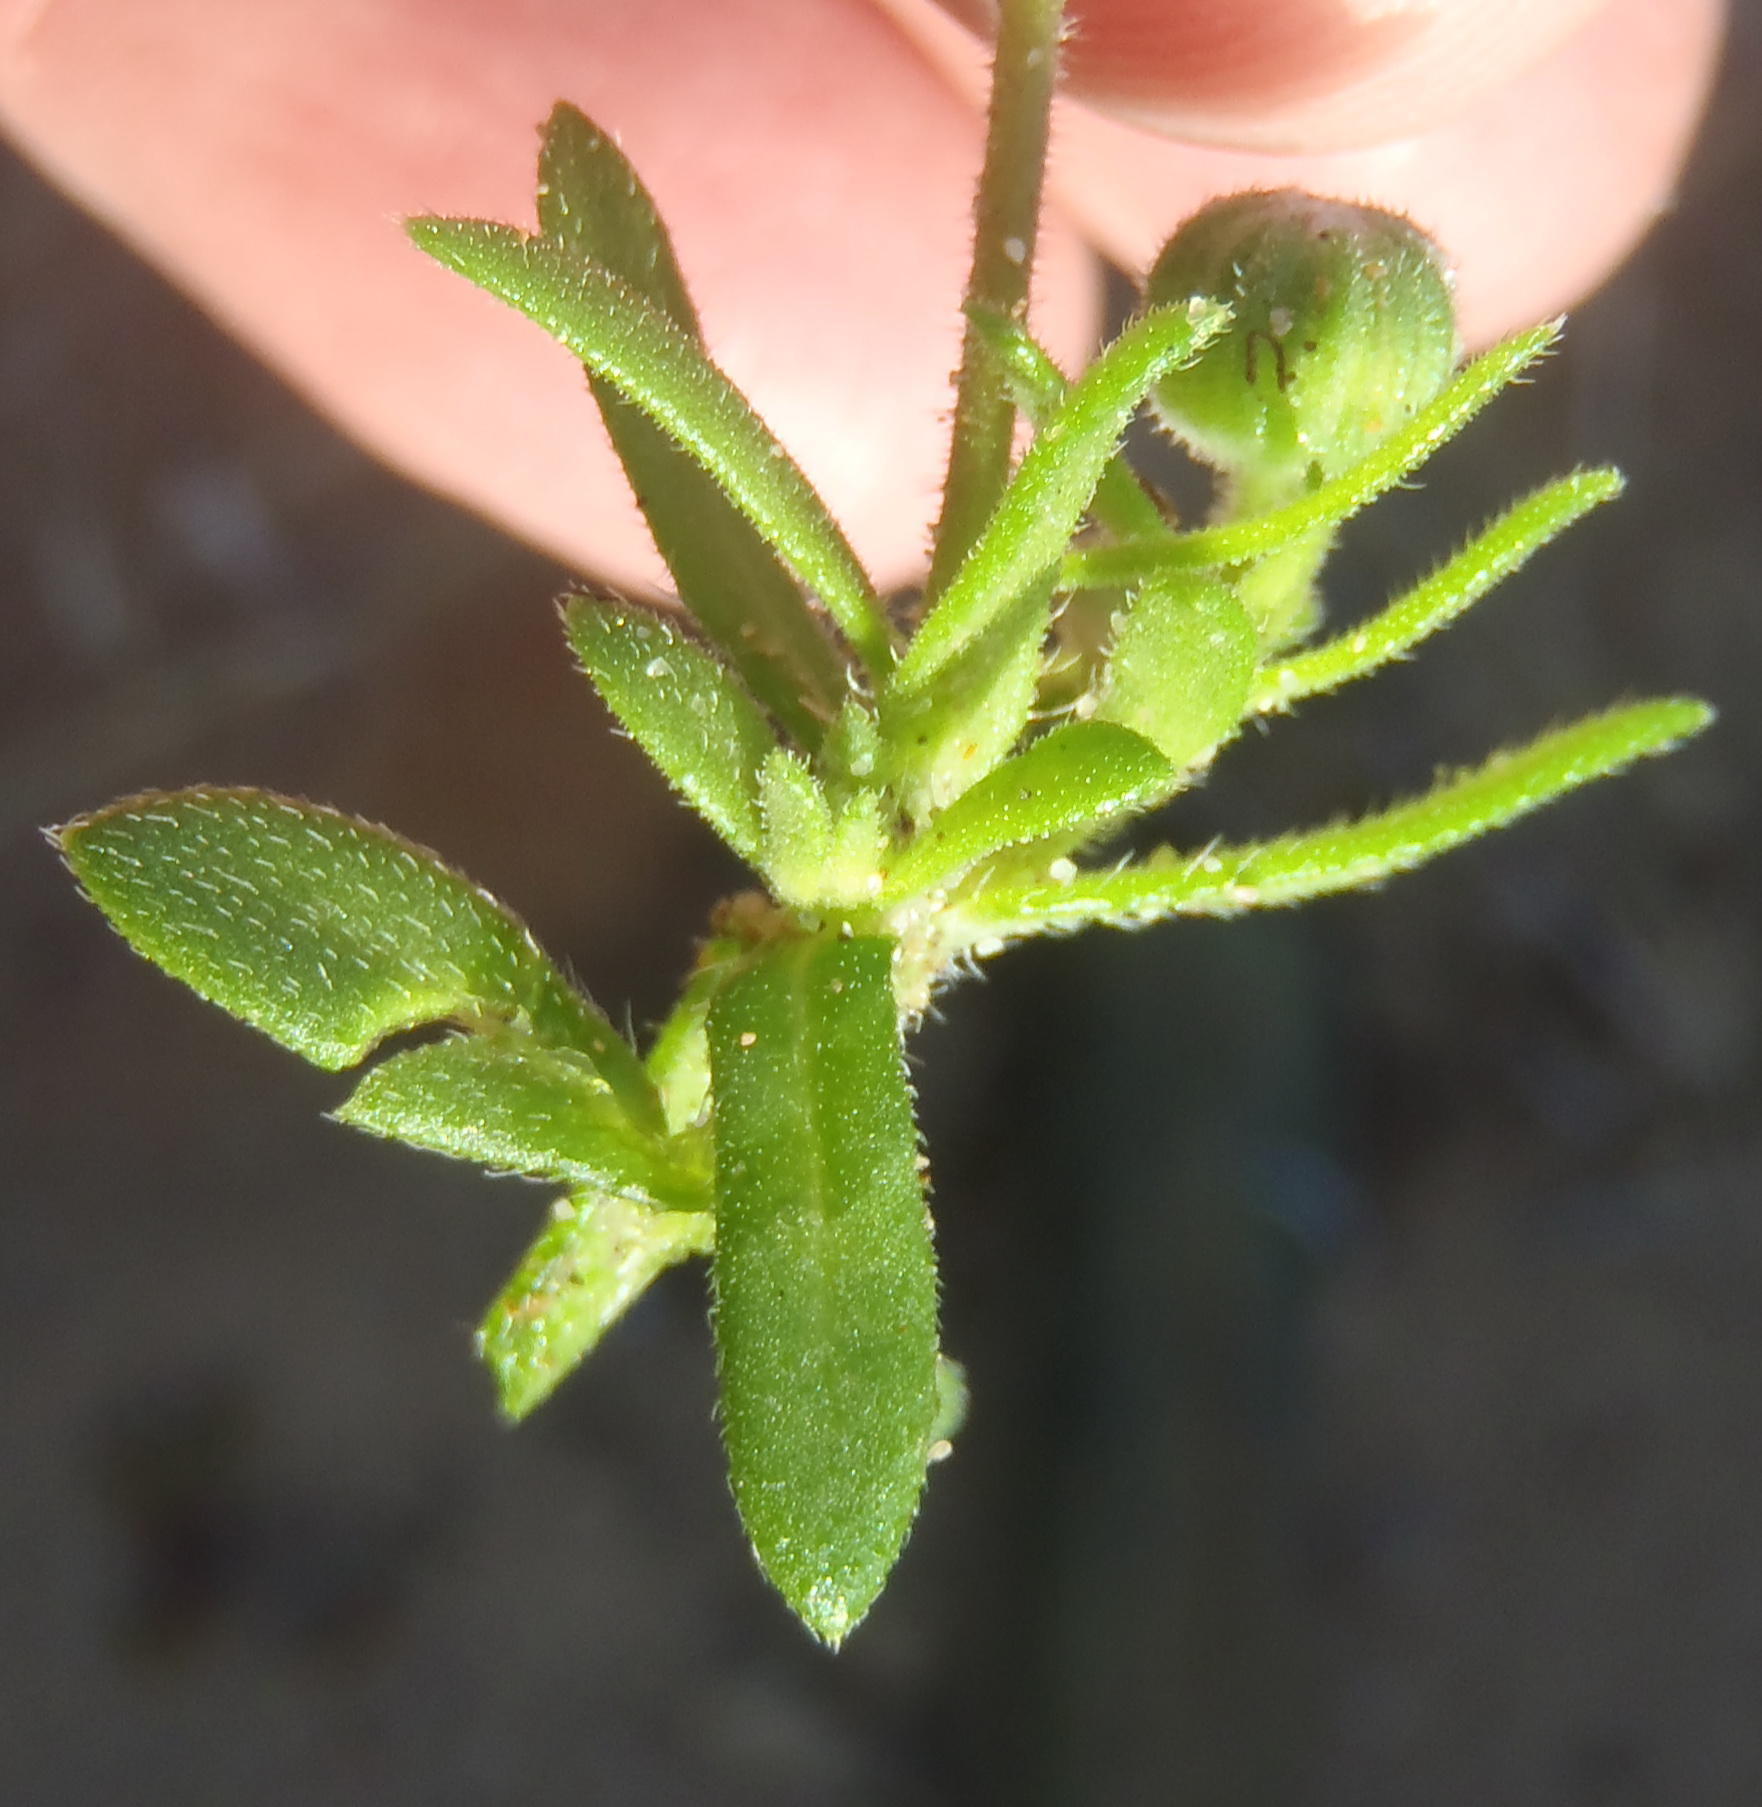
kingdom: Plantae
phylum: Tracheophyta
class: Magnoliopsida
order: Asterales
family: Asteraceae
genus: Felicia
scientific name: Felicia amoena
